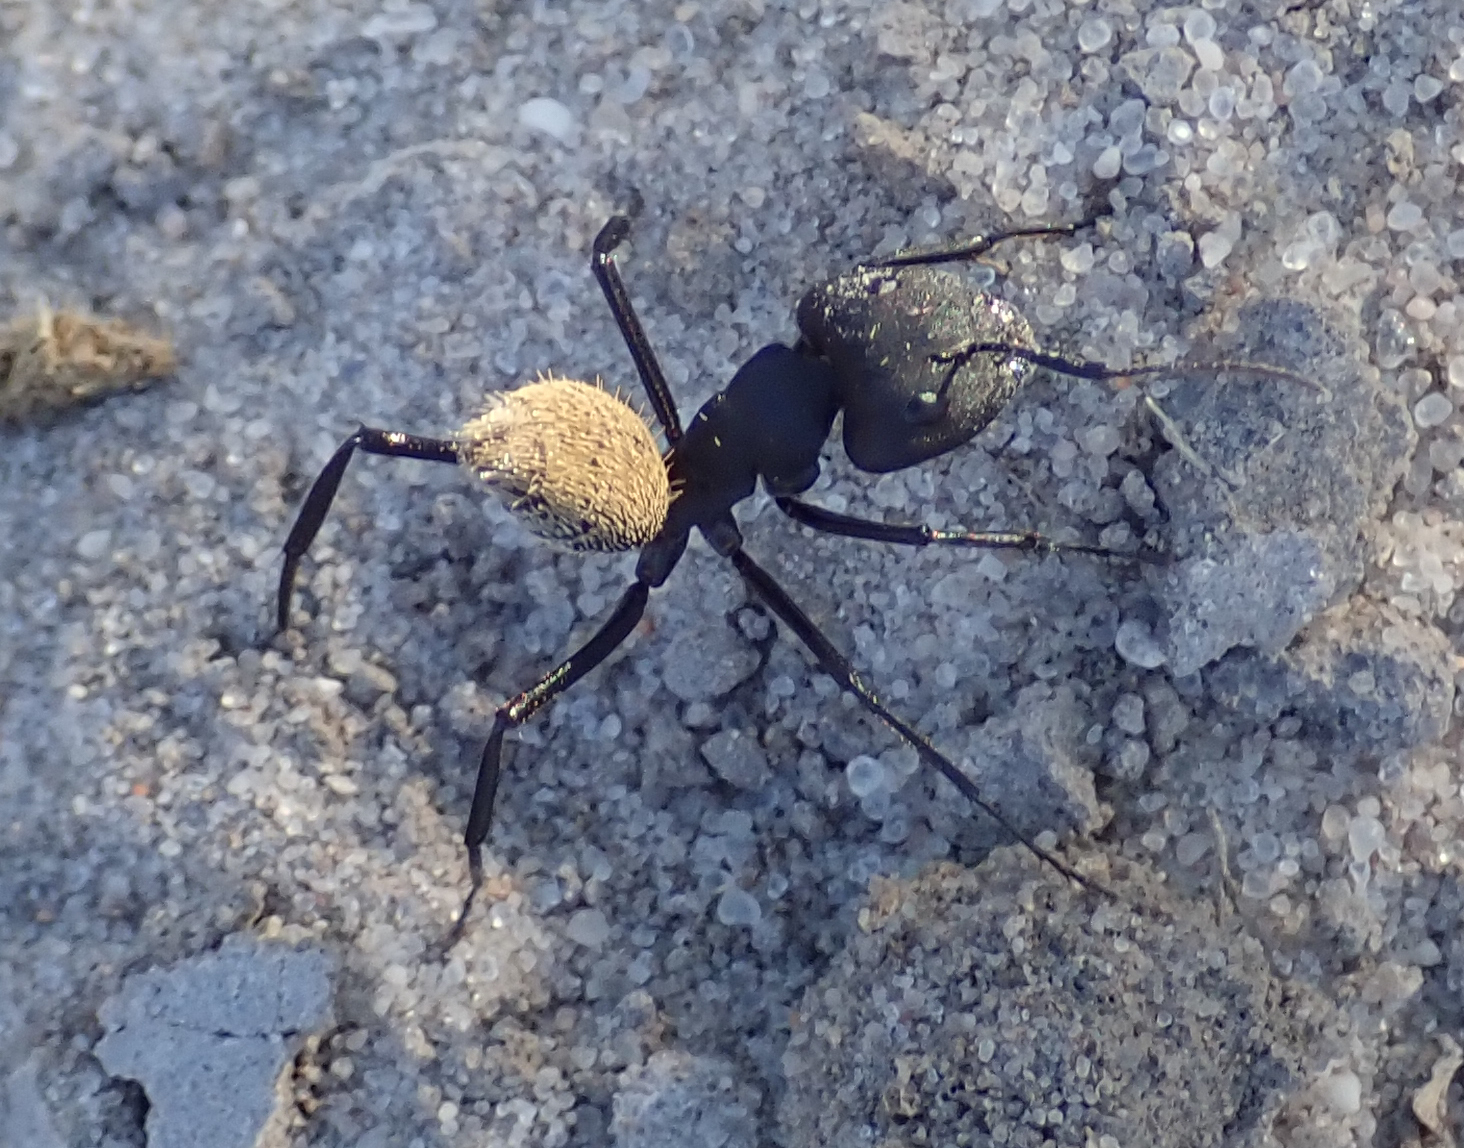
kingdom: Animalia
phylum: Arthropoda
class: Insecta
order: Hymenoptera
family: Formicidae
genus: Camponotus
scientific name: Camponotus fulvopilosus
